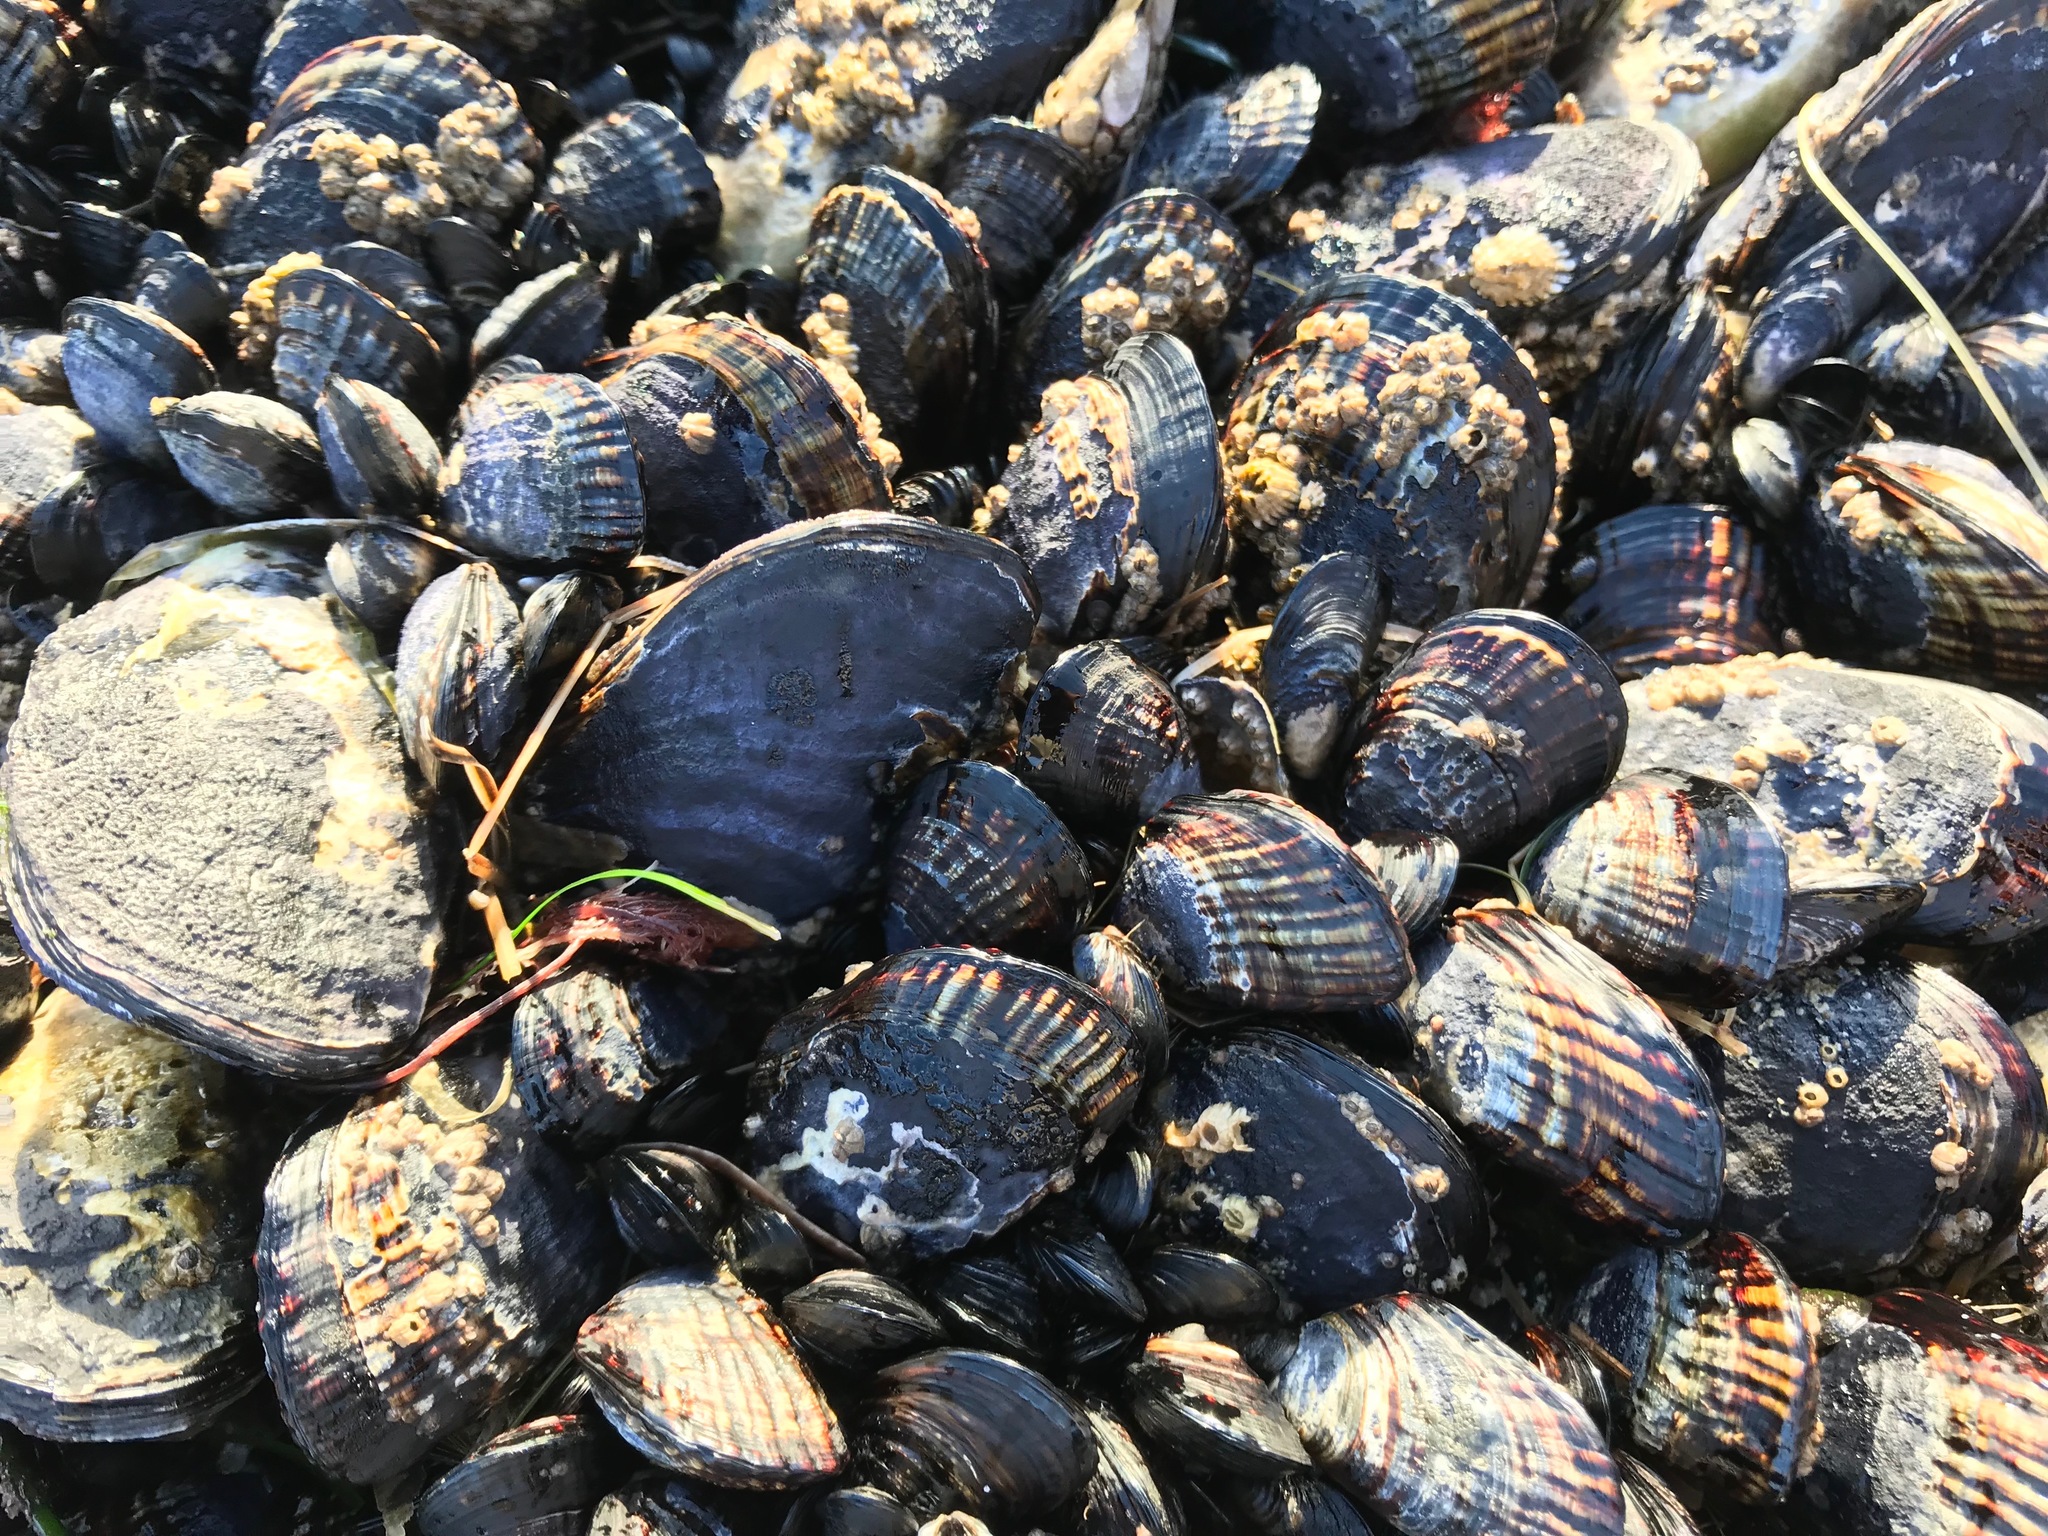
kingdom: Animalia
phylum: Mollusca
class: Bivalvia
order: Mytilida
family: Mytilidae
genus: Mytilus
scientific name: Mytilus californianus
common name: California mussel
